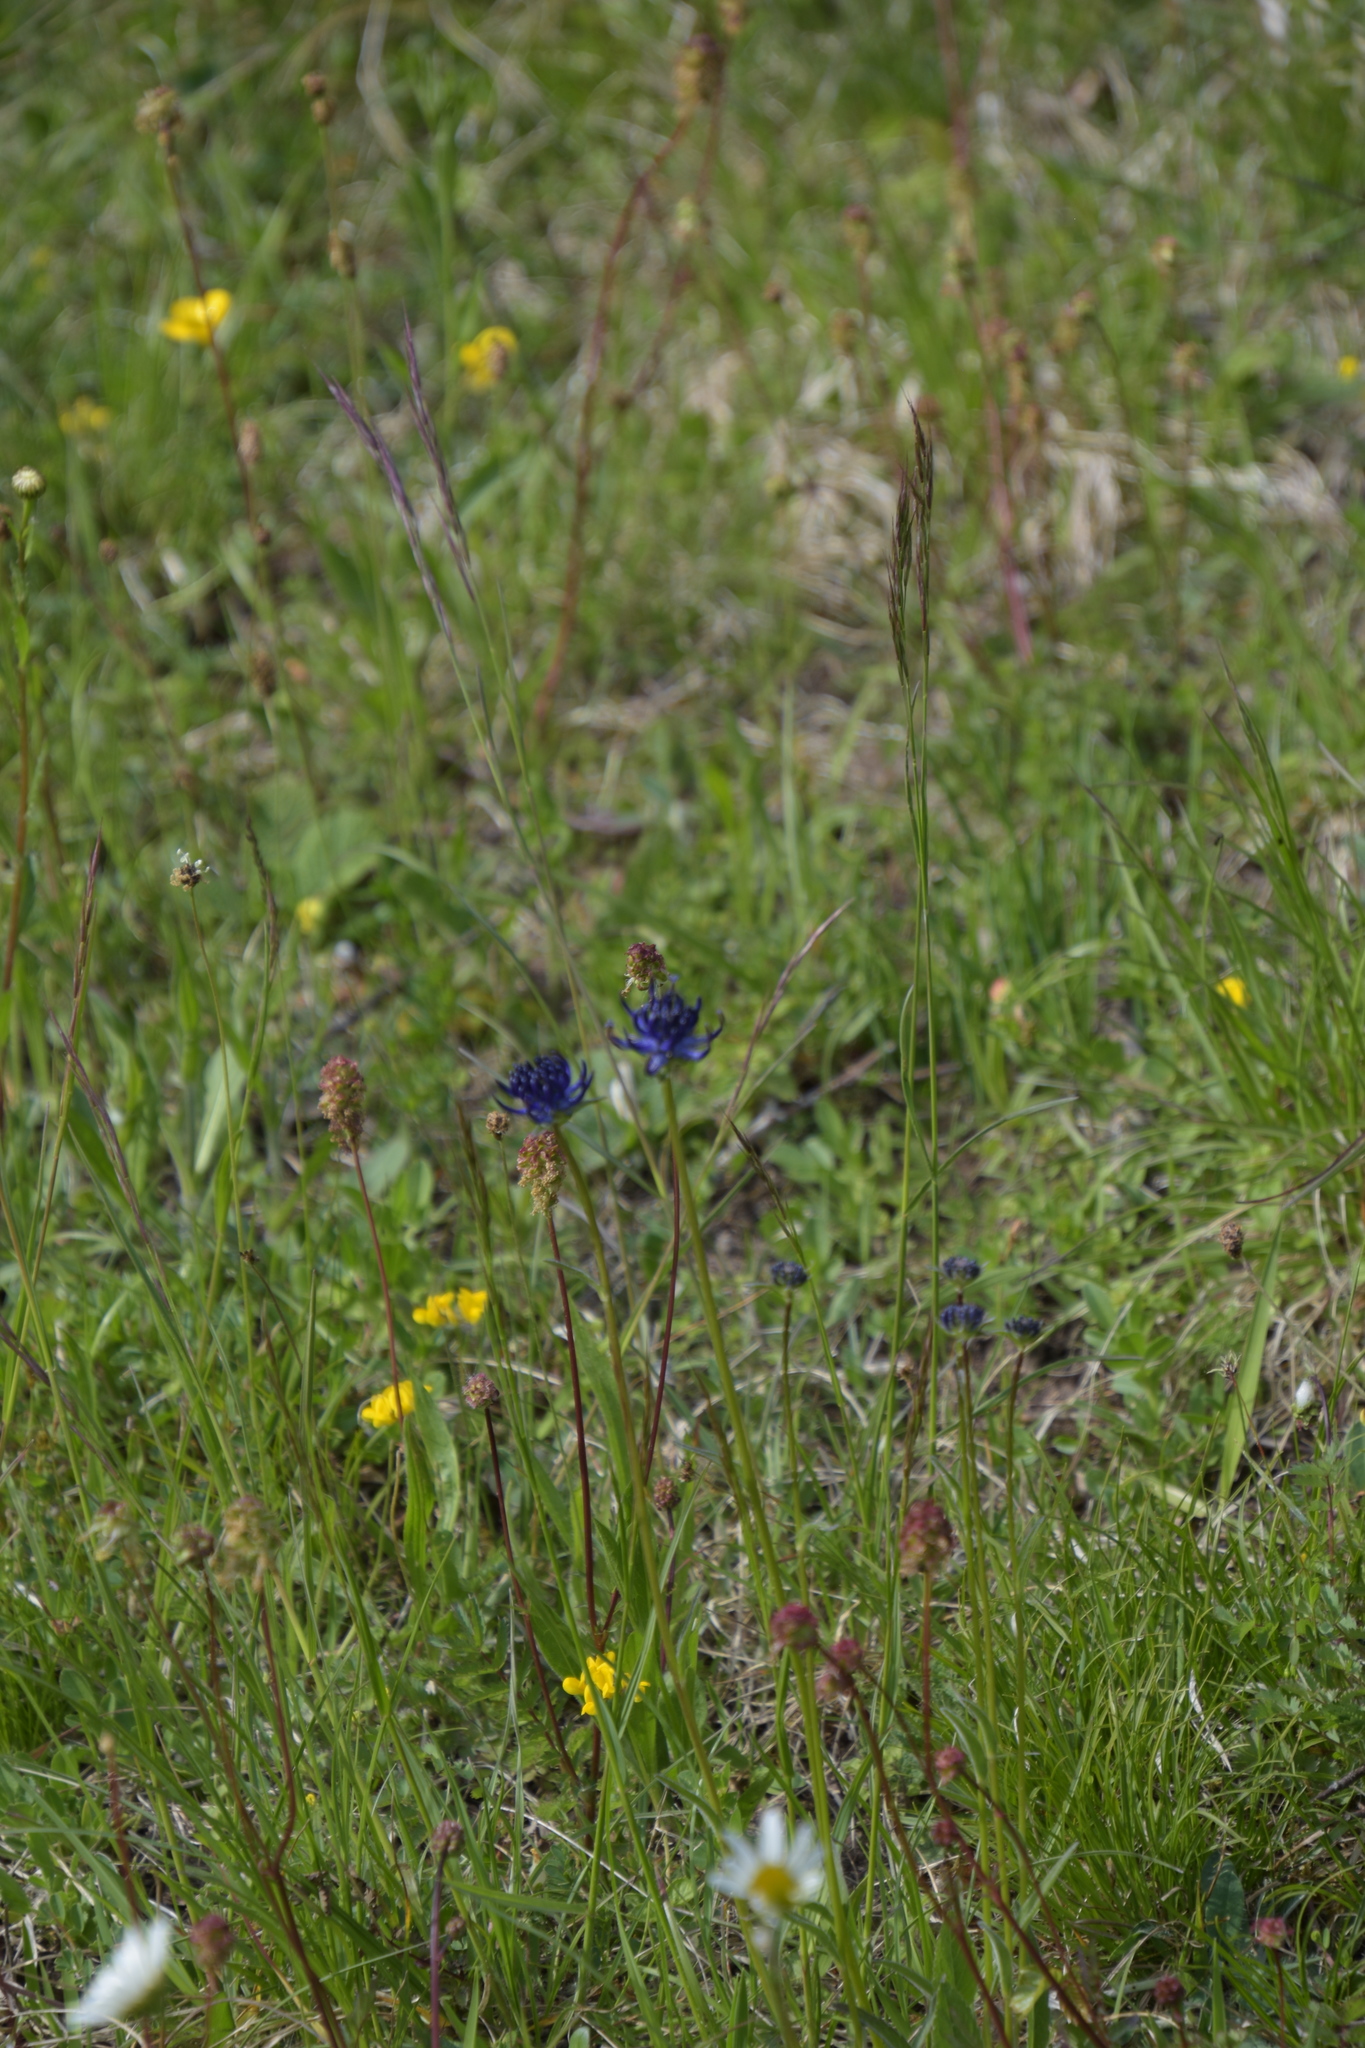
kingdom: Plantae
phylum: Tracheophyta
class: Magnoliopsida
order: Asterales
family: Campanulaceae
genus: Phyteuma
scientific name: Phyteuma orbiculare
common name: Round-headed rampion
